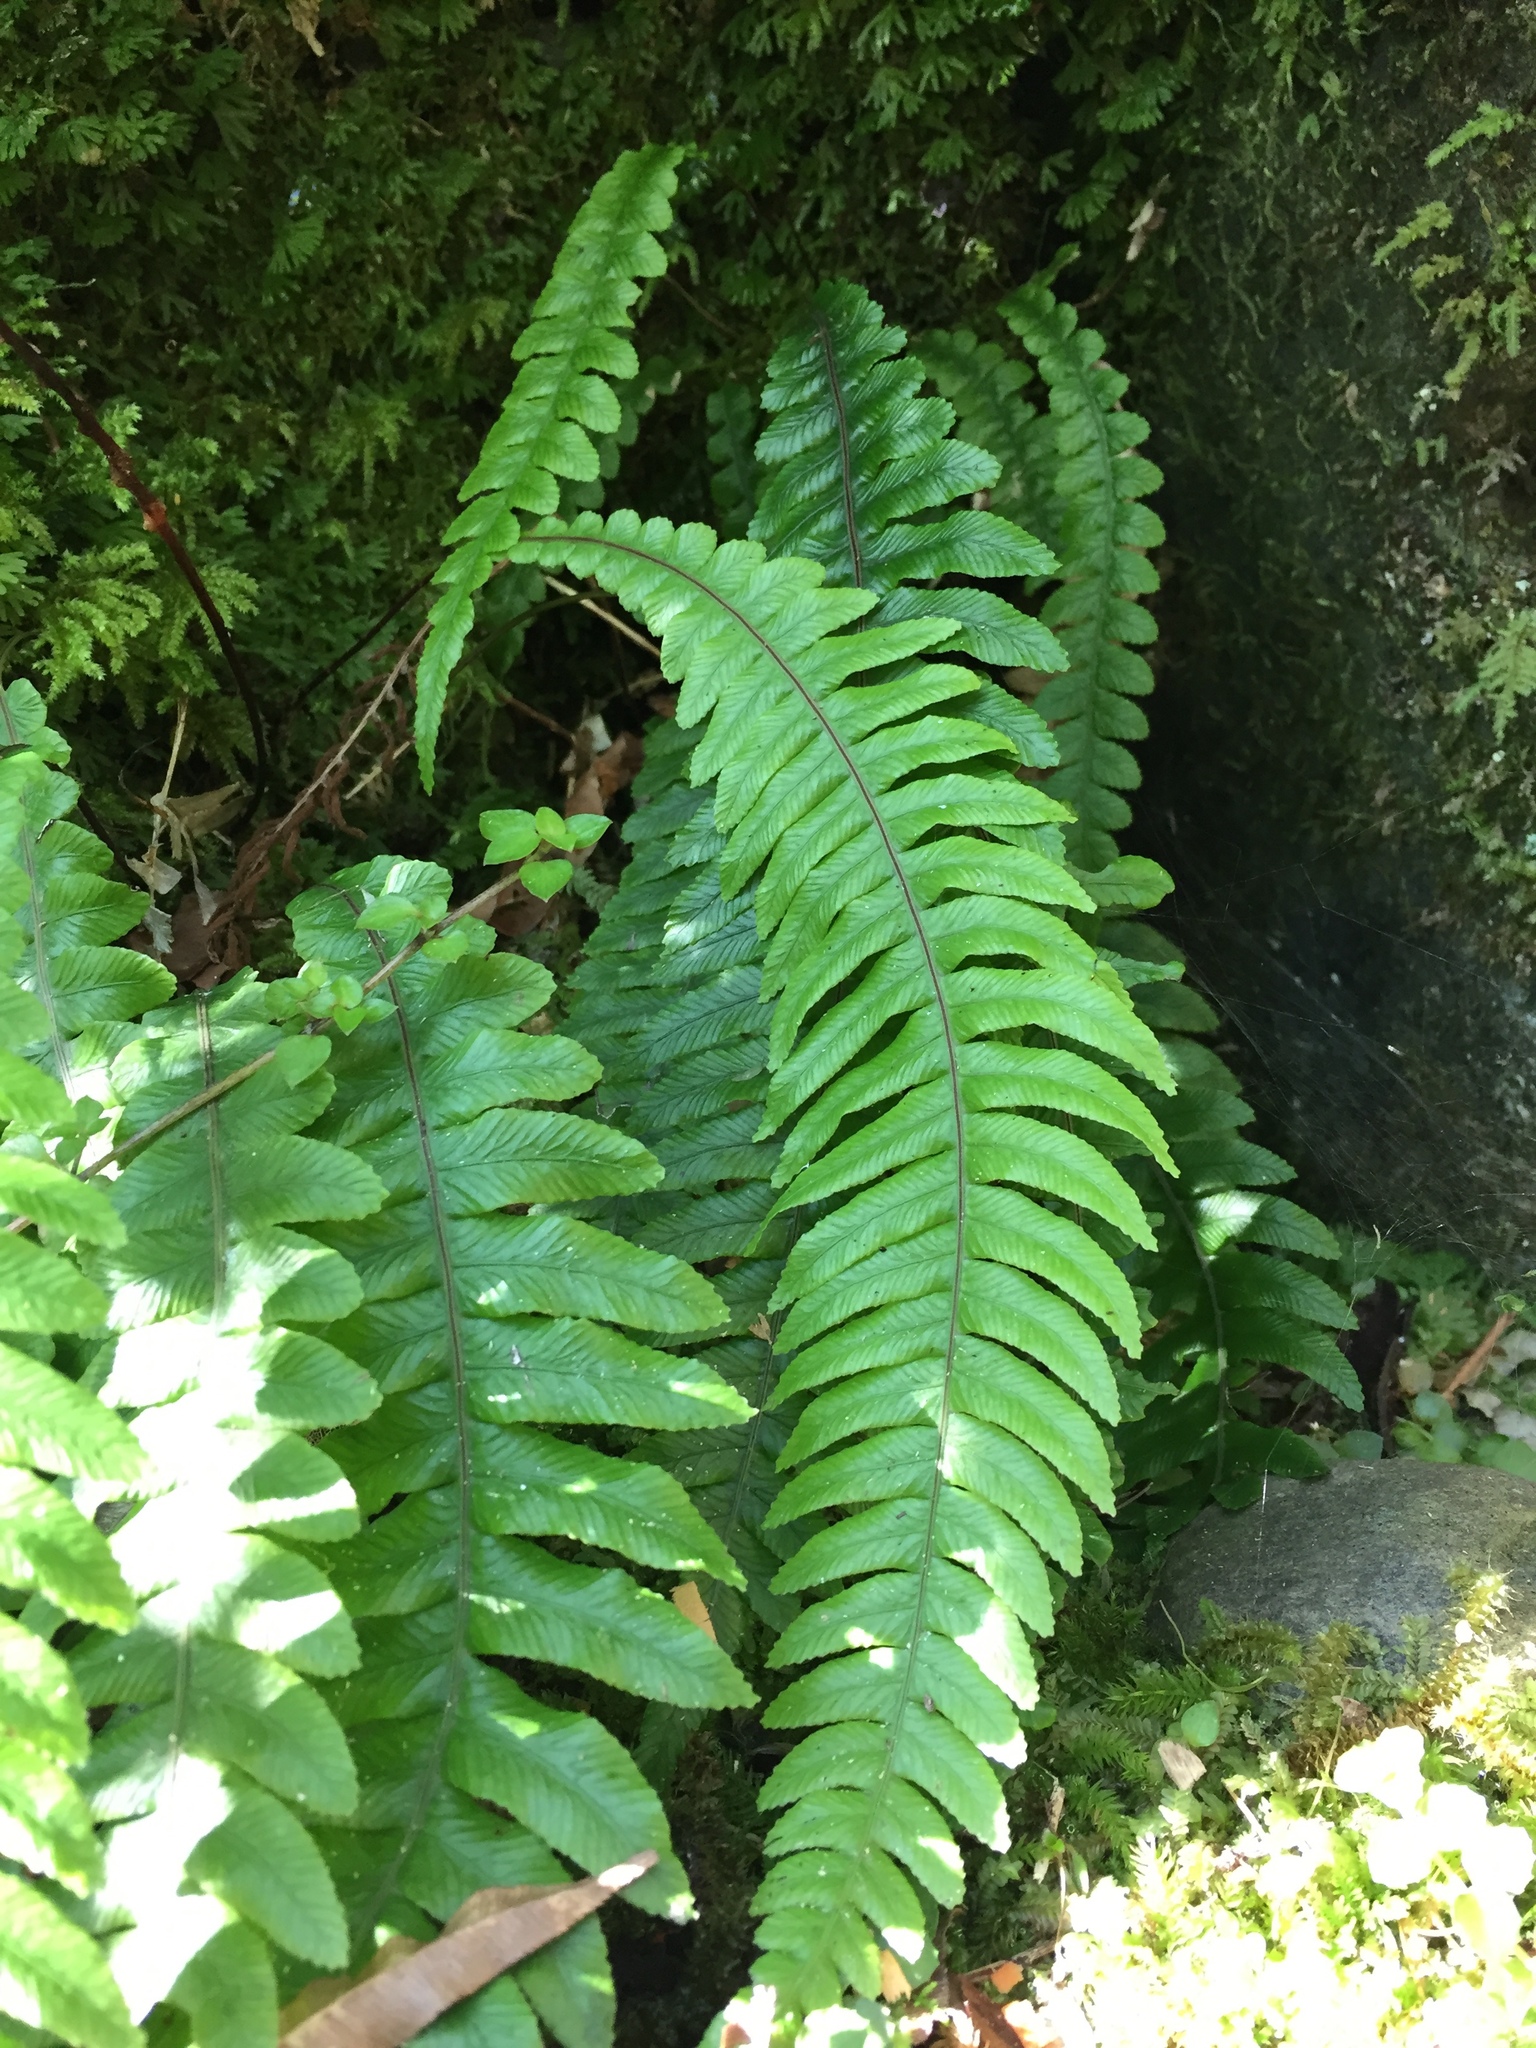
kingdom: Plantae
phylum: Tracheophyta
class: Polypodiopsida
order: Polypodiales
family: Blechnaceae
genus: Austroblechnum
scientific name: Austroblechnum lanceolatum
